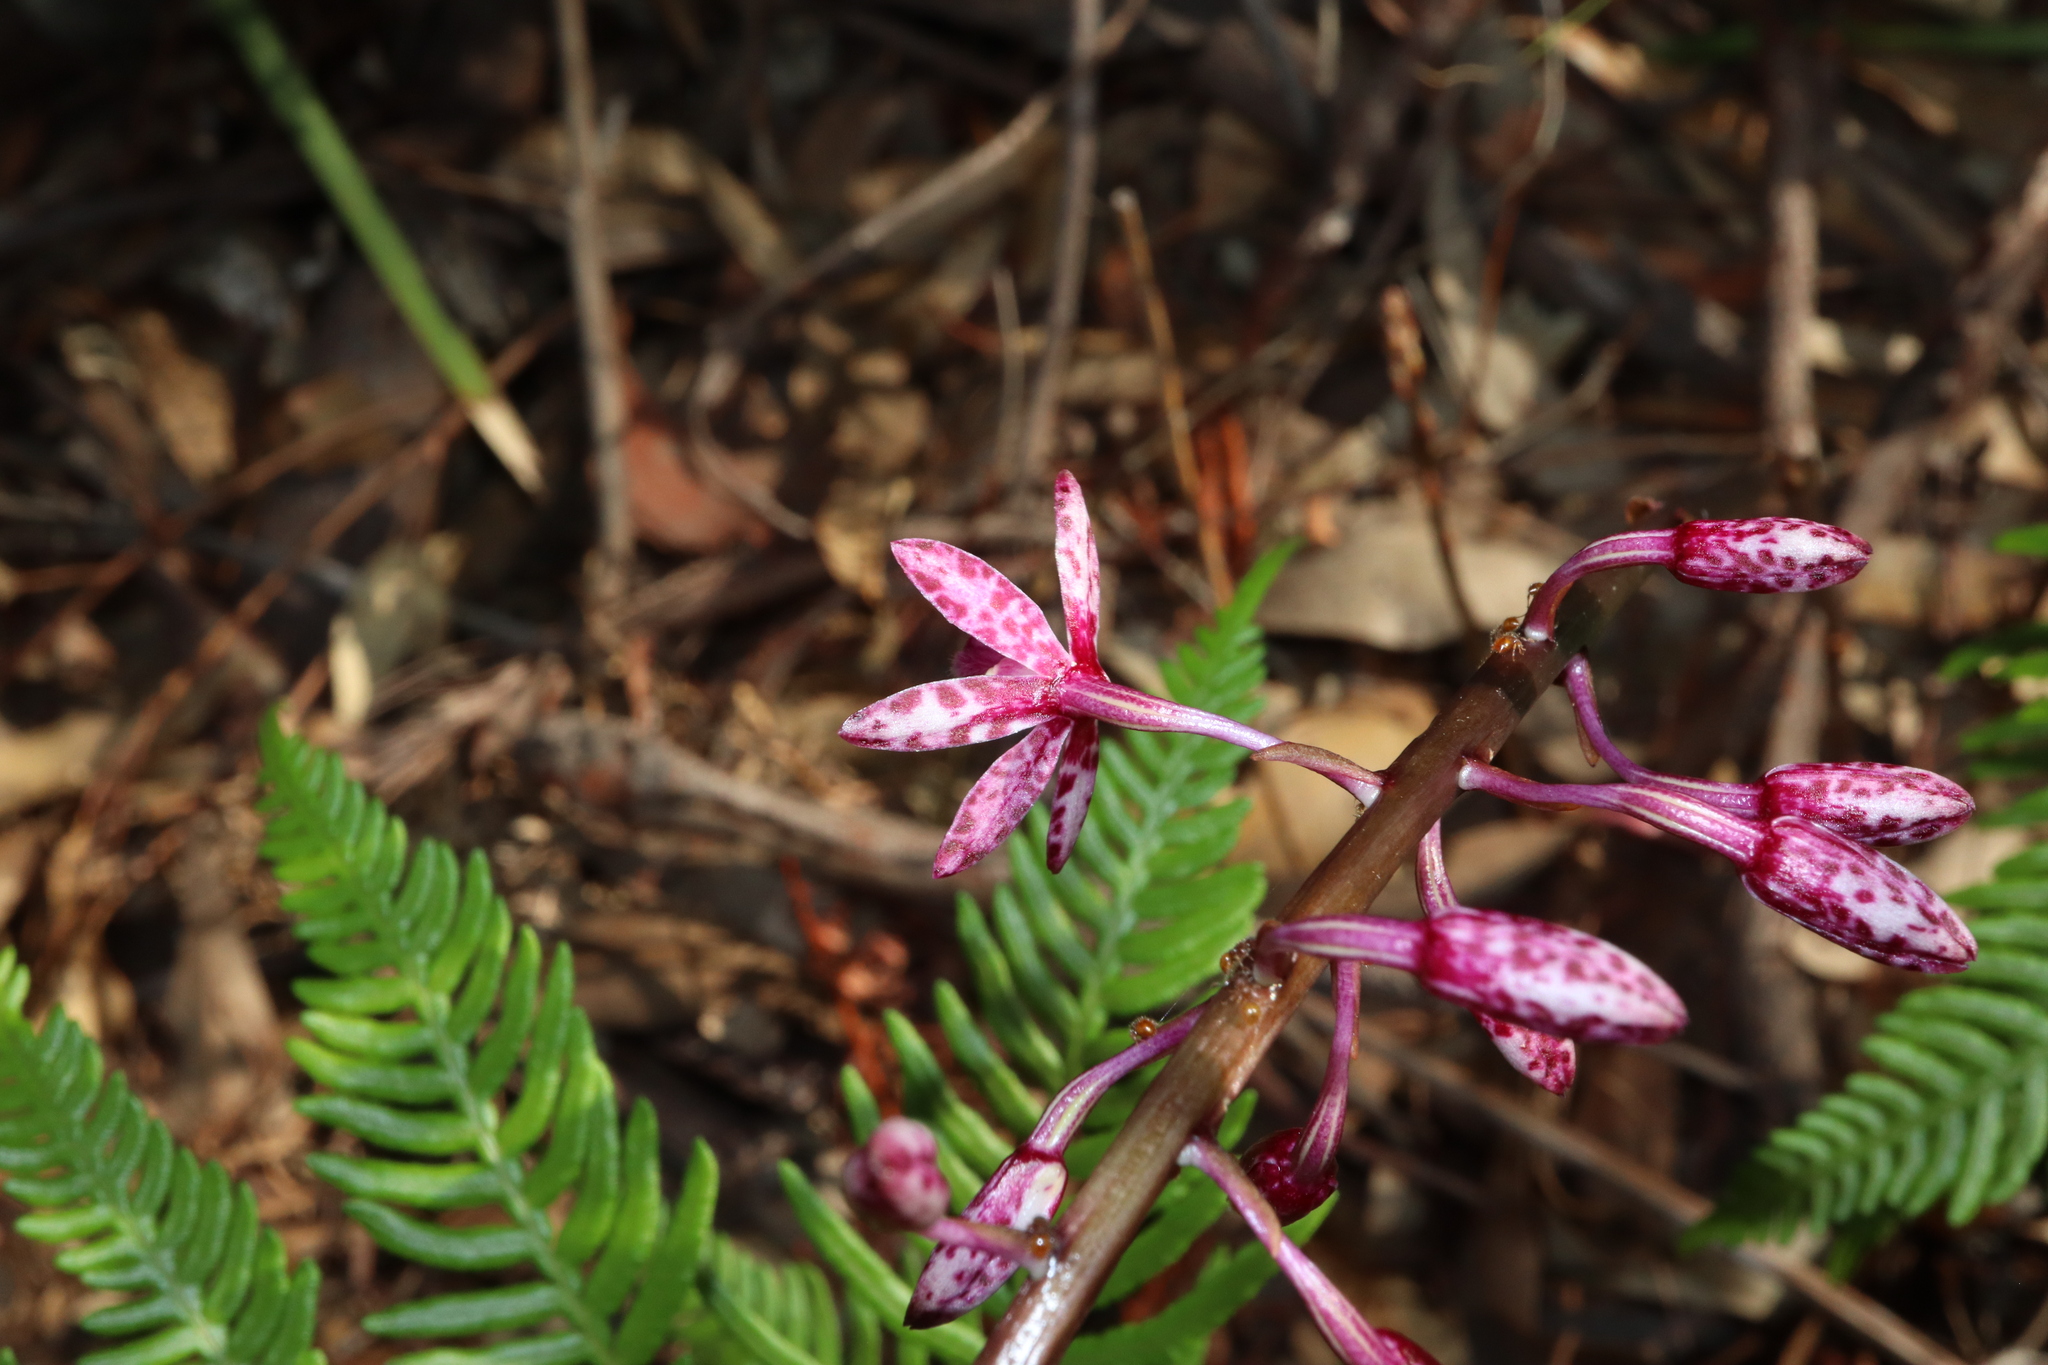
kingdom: Plantae
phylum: Tracheophyta
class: Liliopsida
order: Asparagales
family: Orchidaceae
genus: Dipodium
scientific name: Dipodium squamatum
